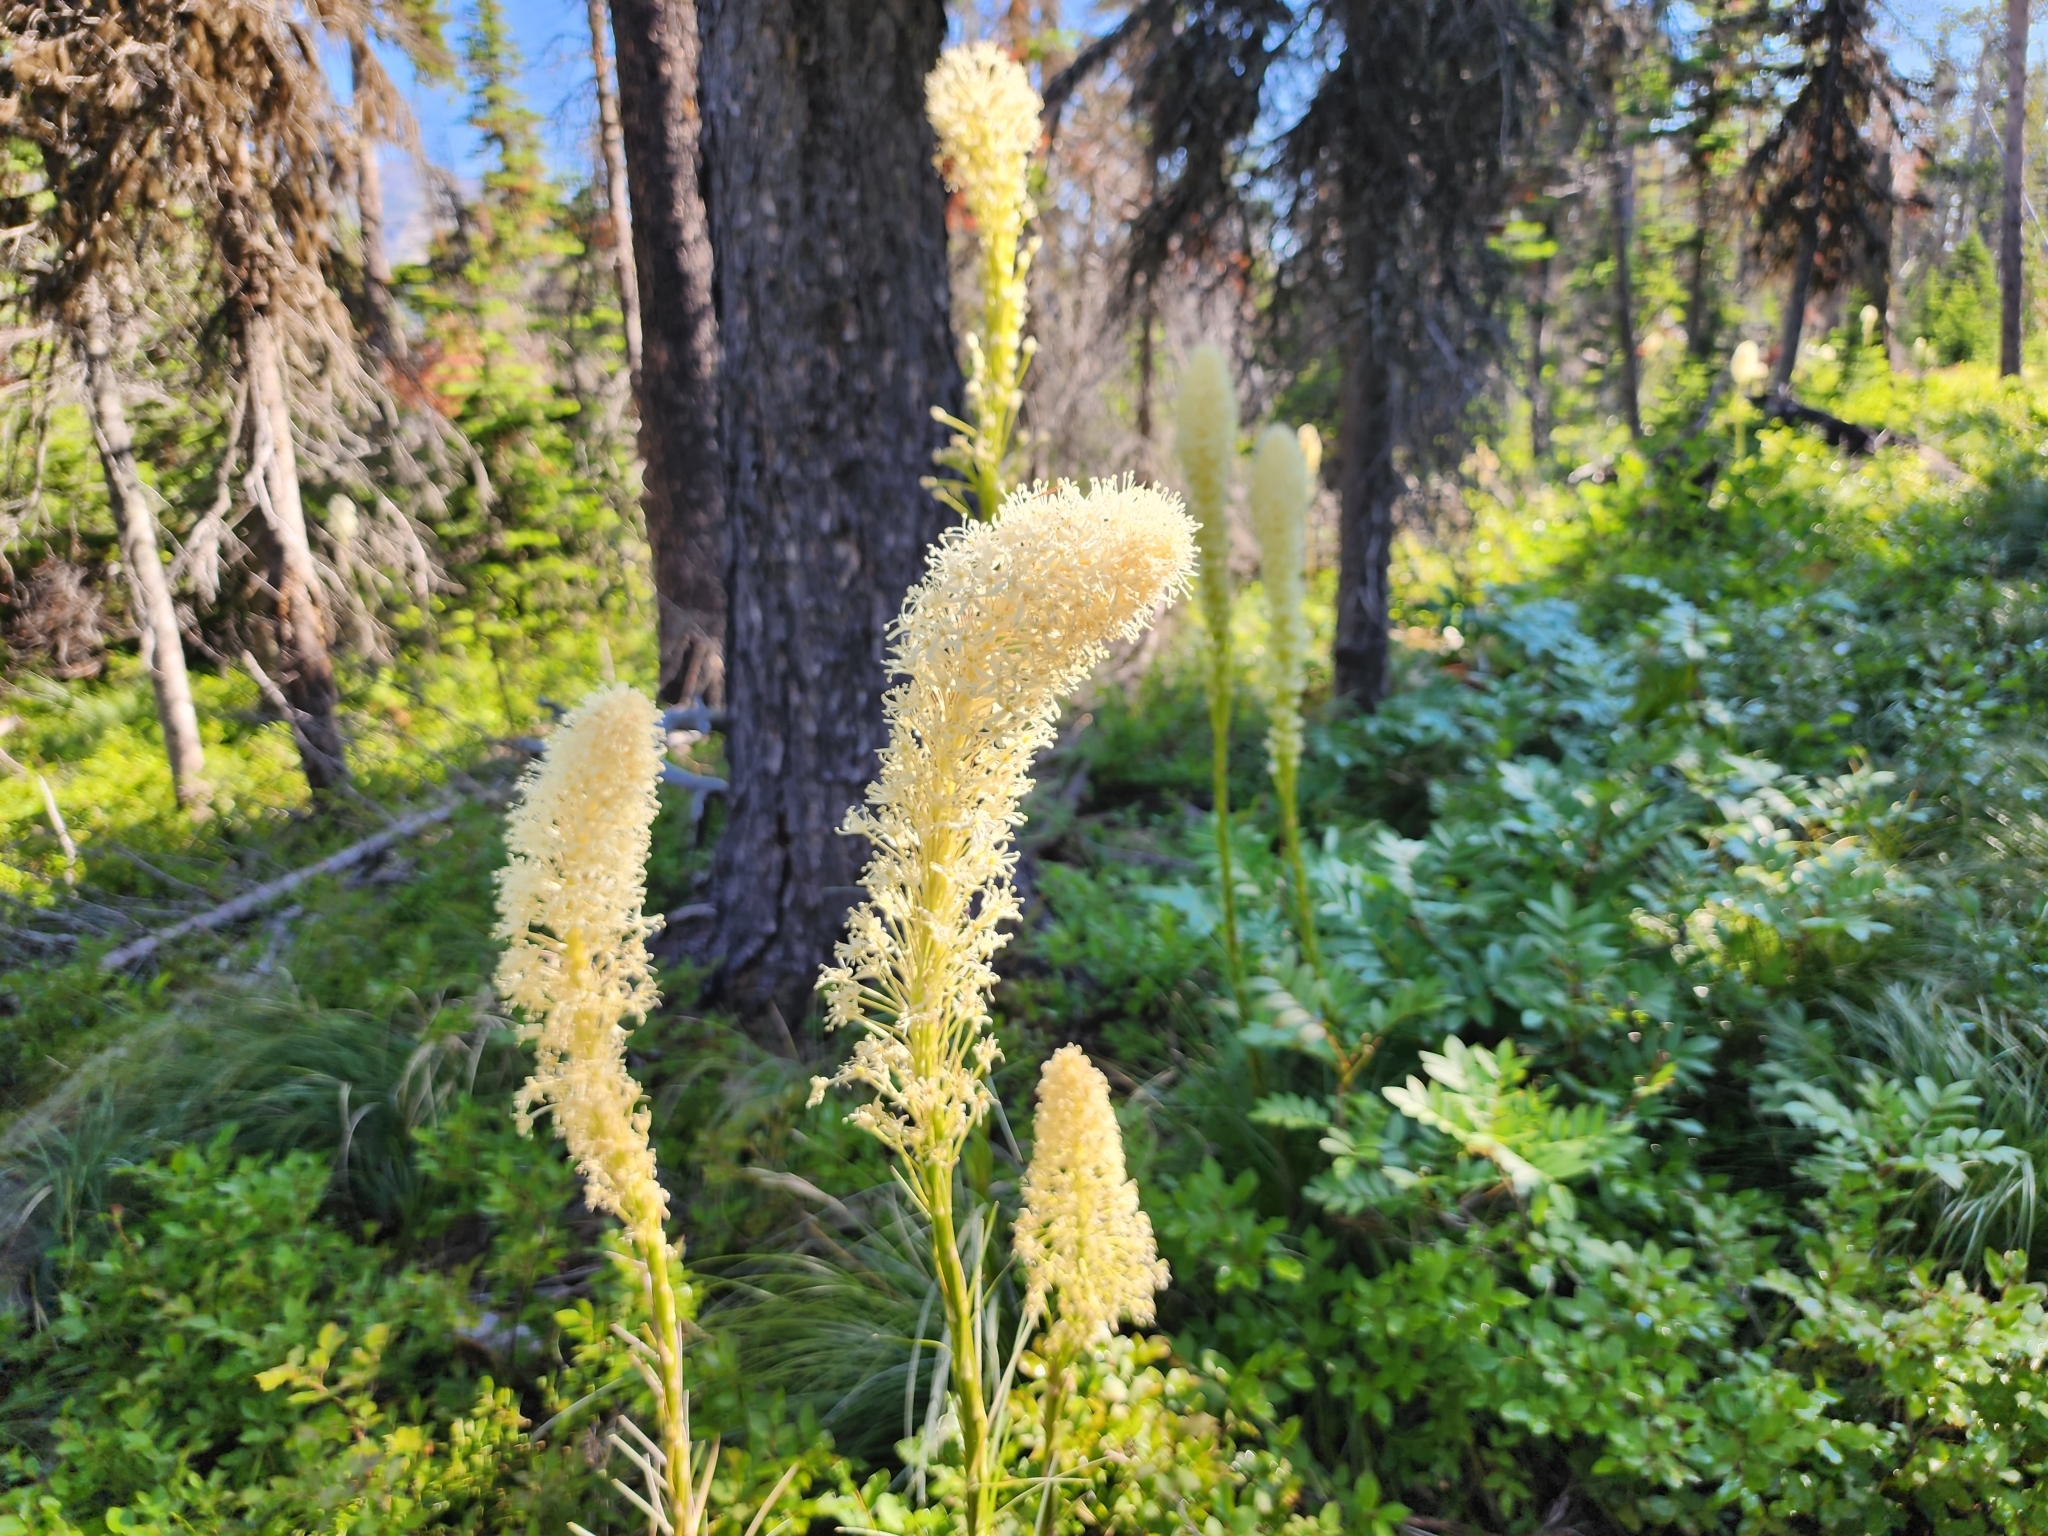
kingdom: Plantae
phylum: Tracheophyta
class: Liliopsida
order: Liliales
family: Melanthiaceae
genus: Xerophyllum
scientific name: Xerophyllum tenax
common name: Bear-grass
